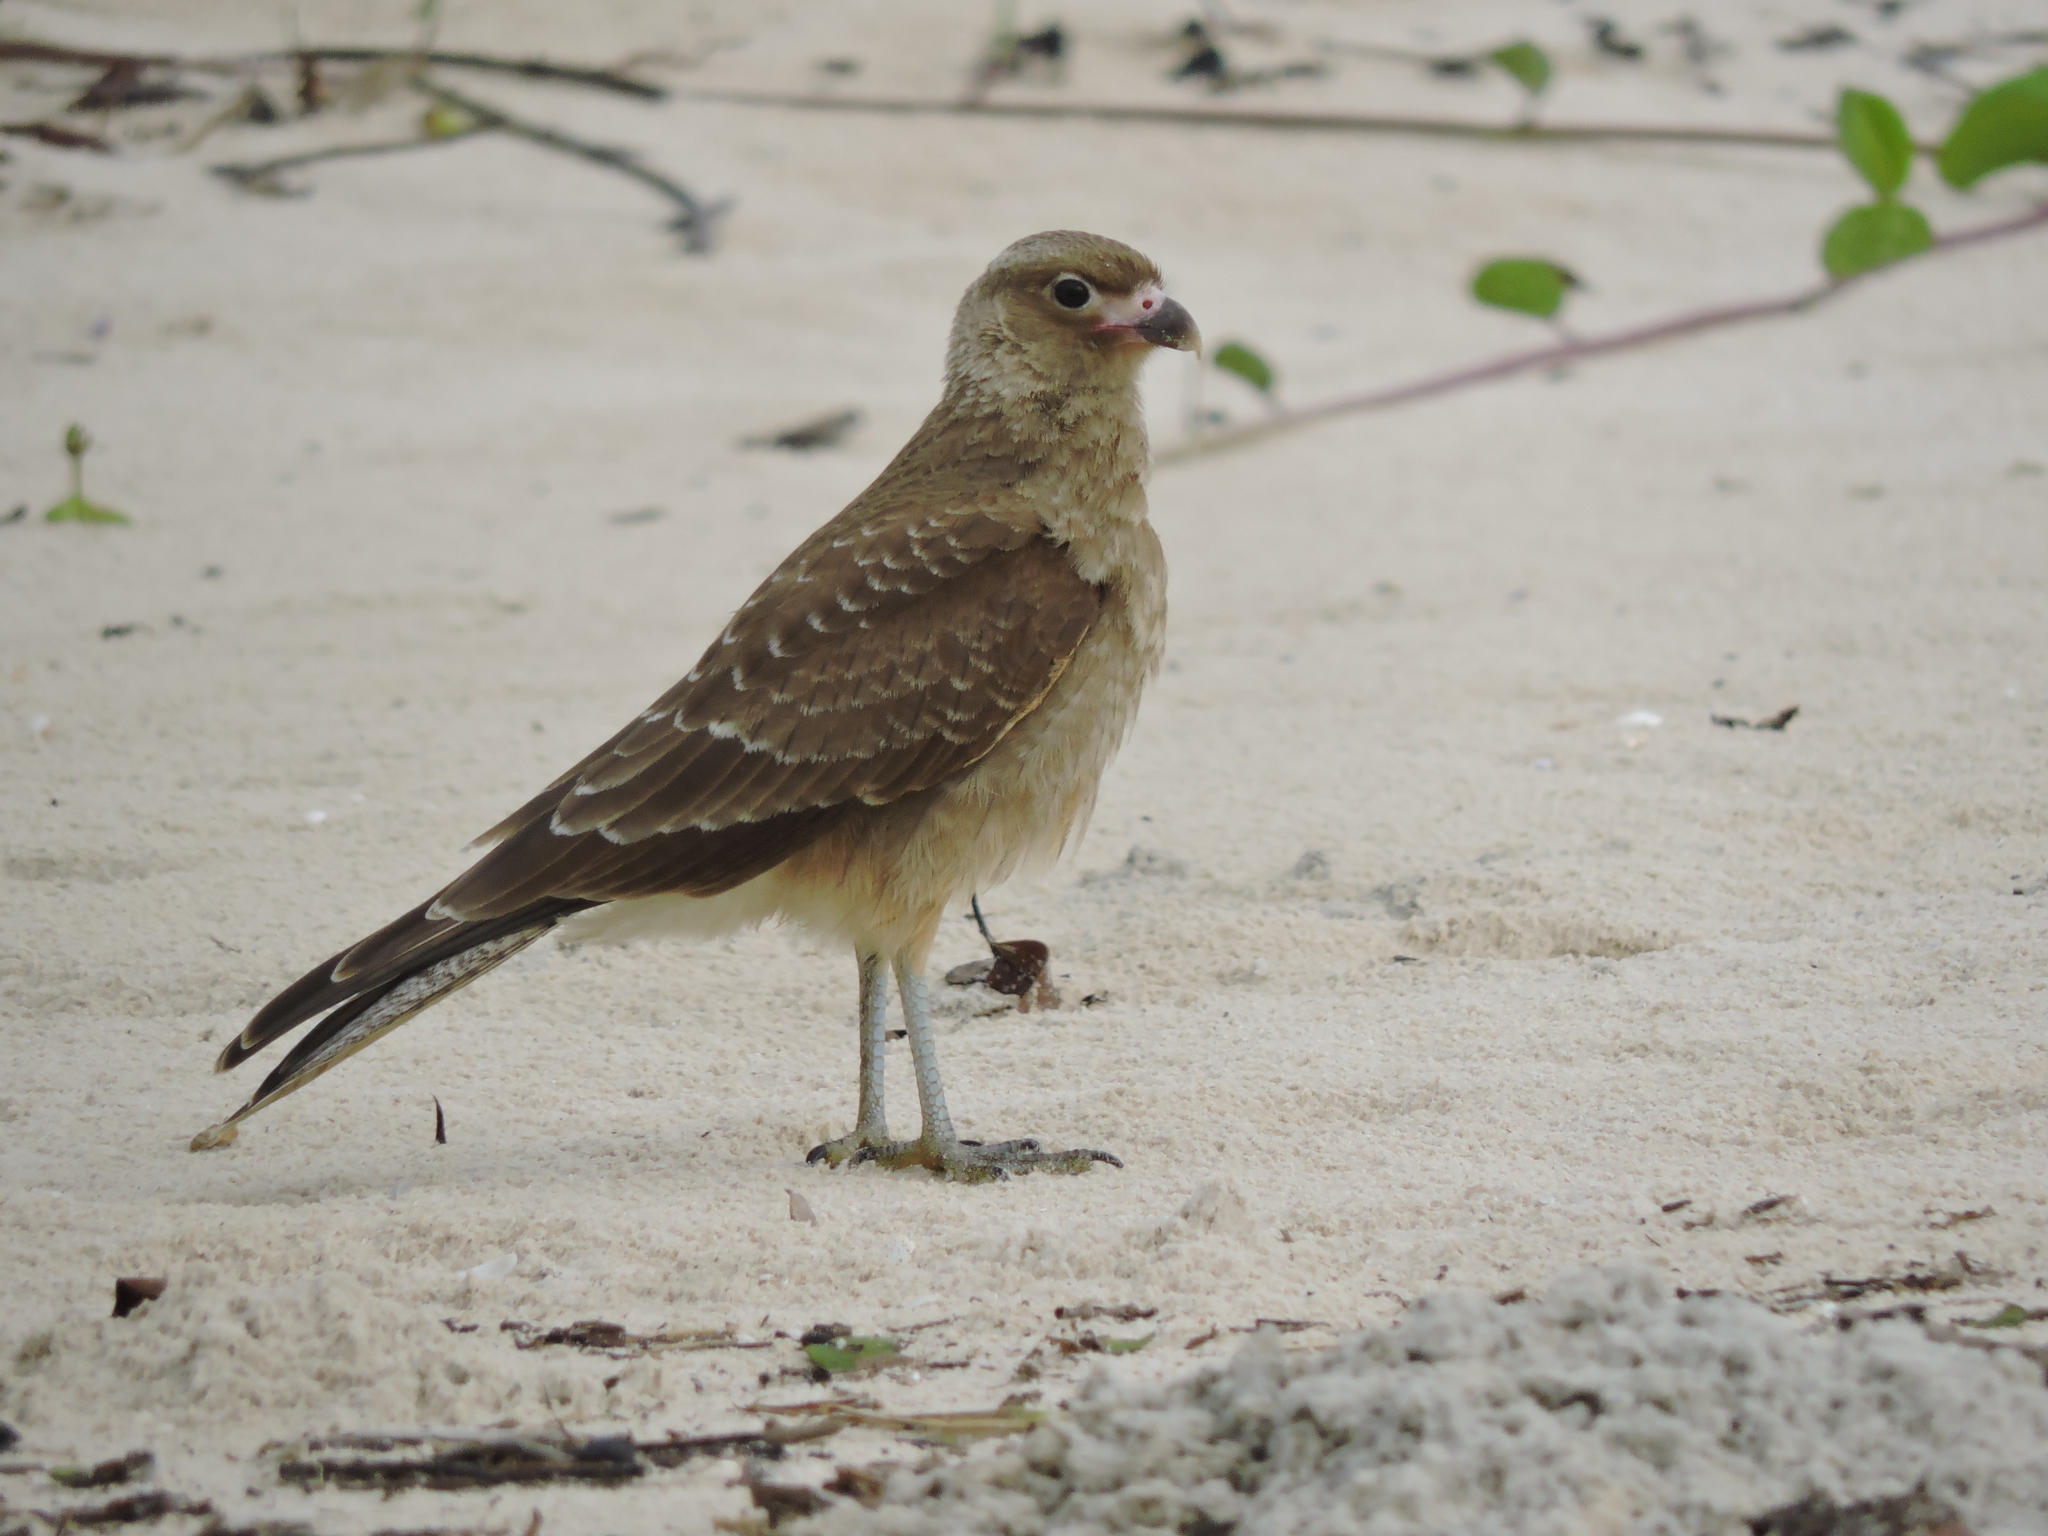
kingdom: Animalia
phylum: Chordata
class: Aves
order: Falconiformes
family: Falconidae
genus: Daptrius
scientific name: Daptrius
